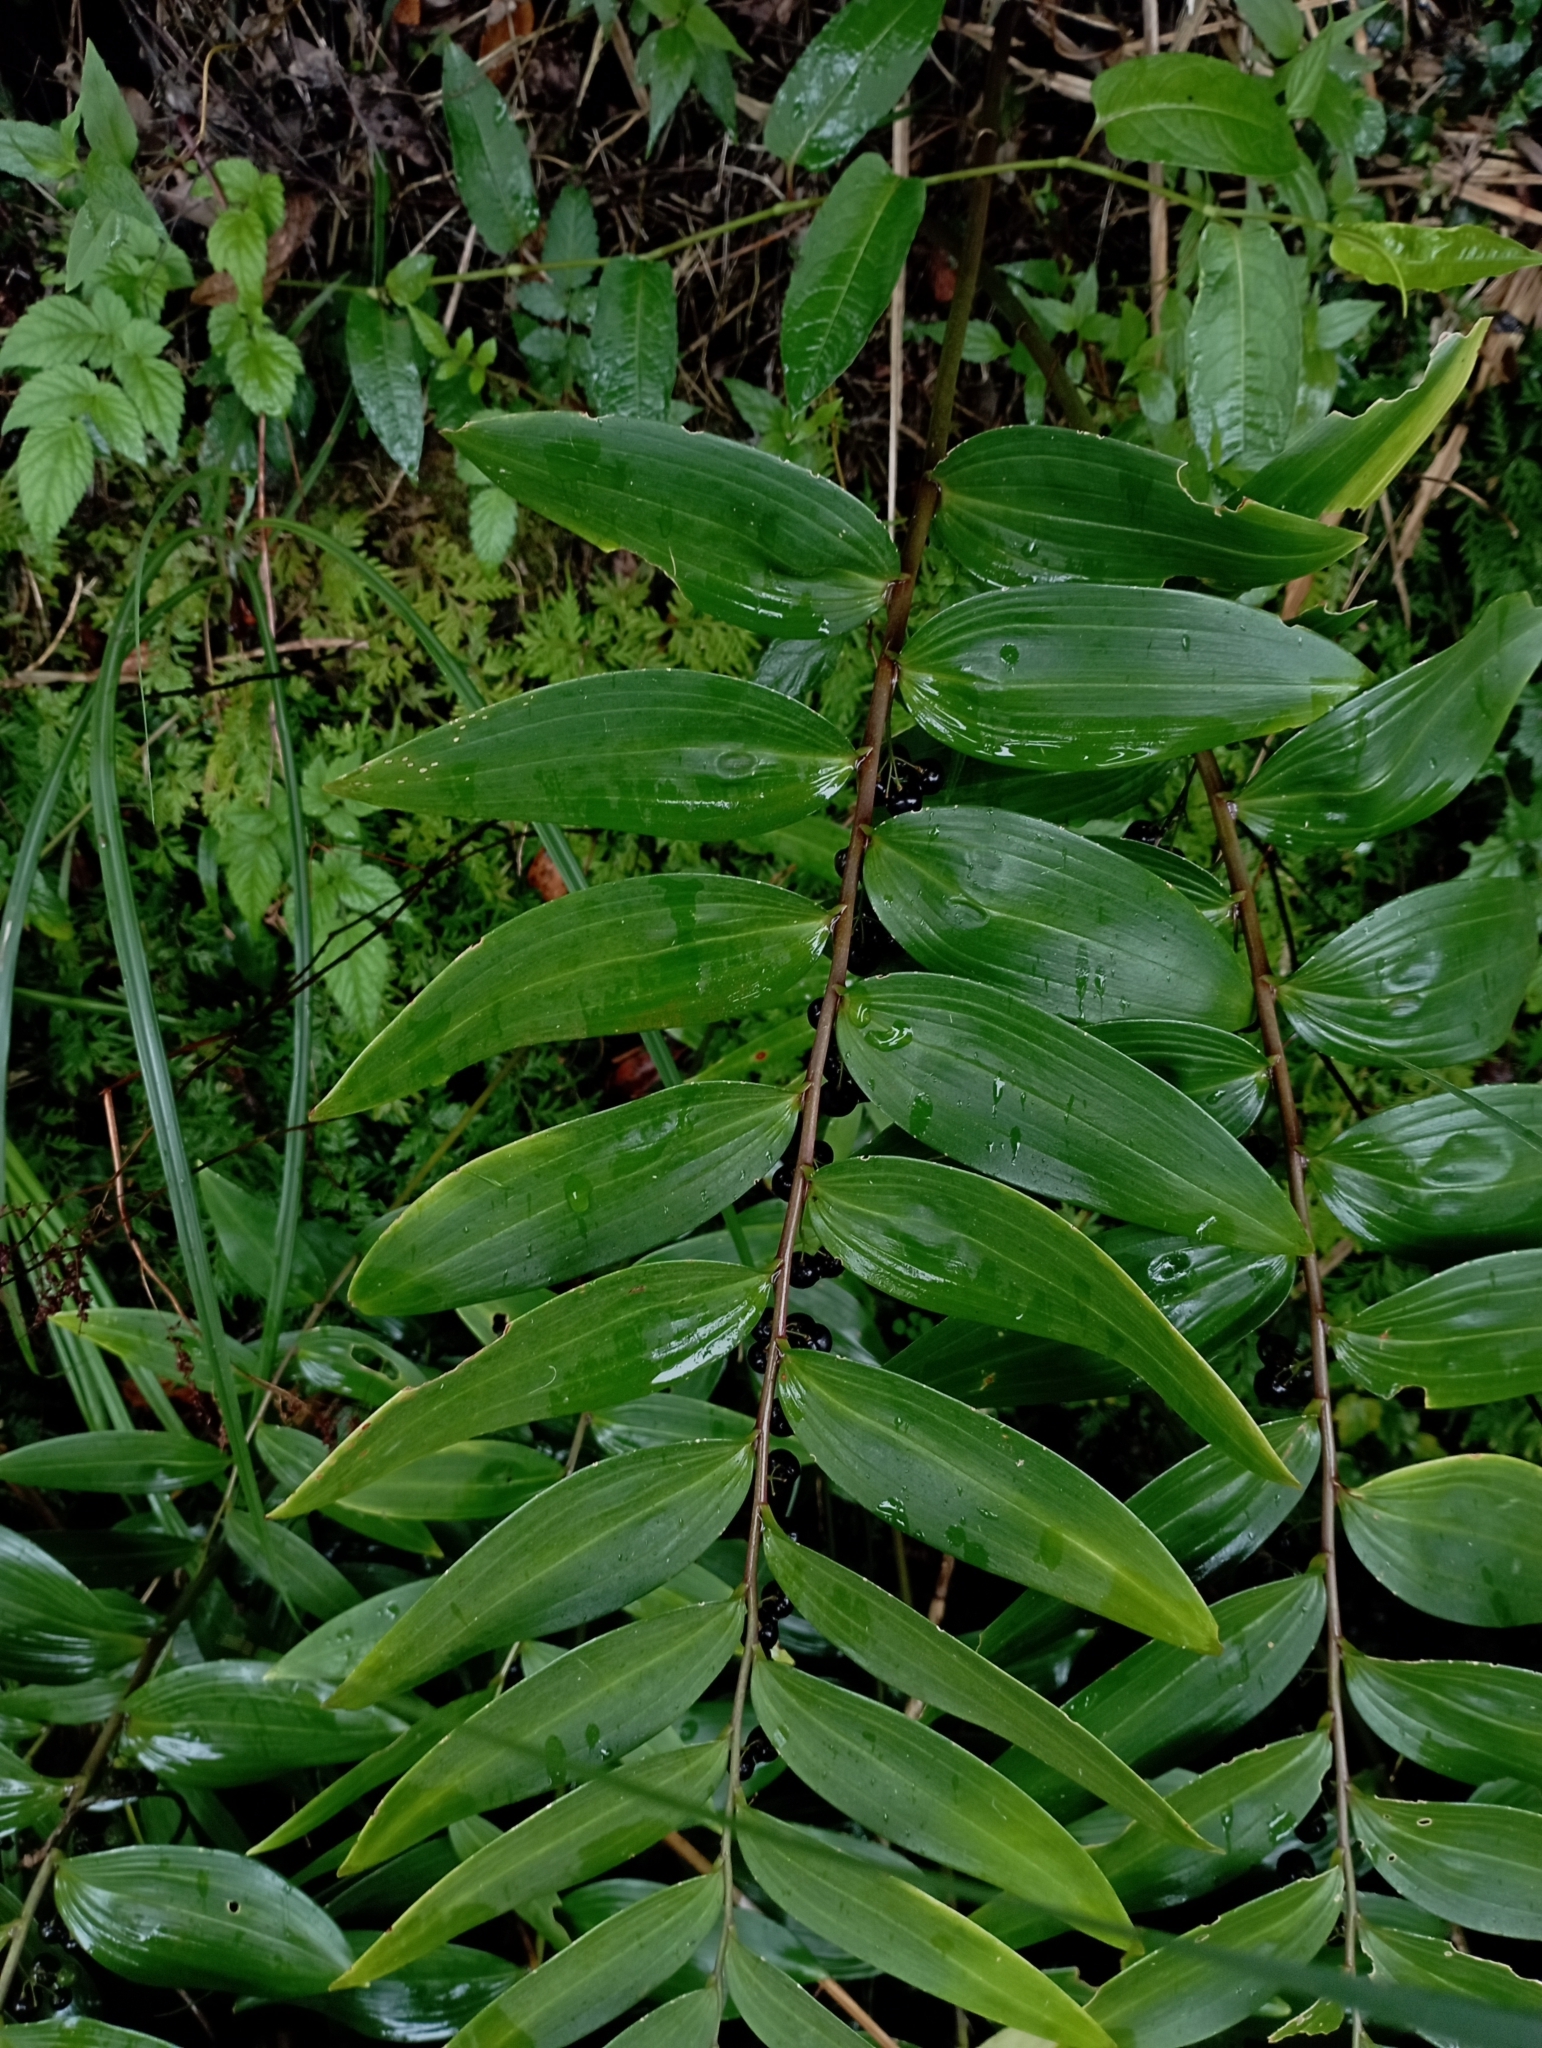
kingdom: Plantae
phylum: Tracheophyta
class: Liliopsida
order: Asparagales
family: Asparagaceae
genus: Polygonatum
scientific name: Polygonatum arisanense
